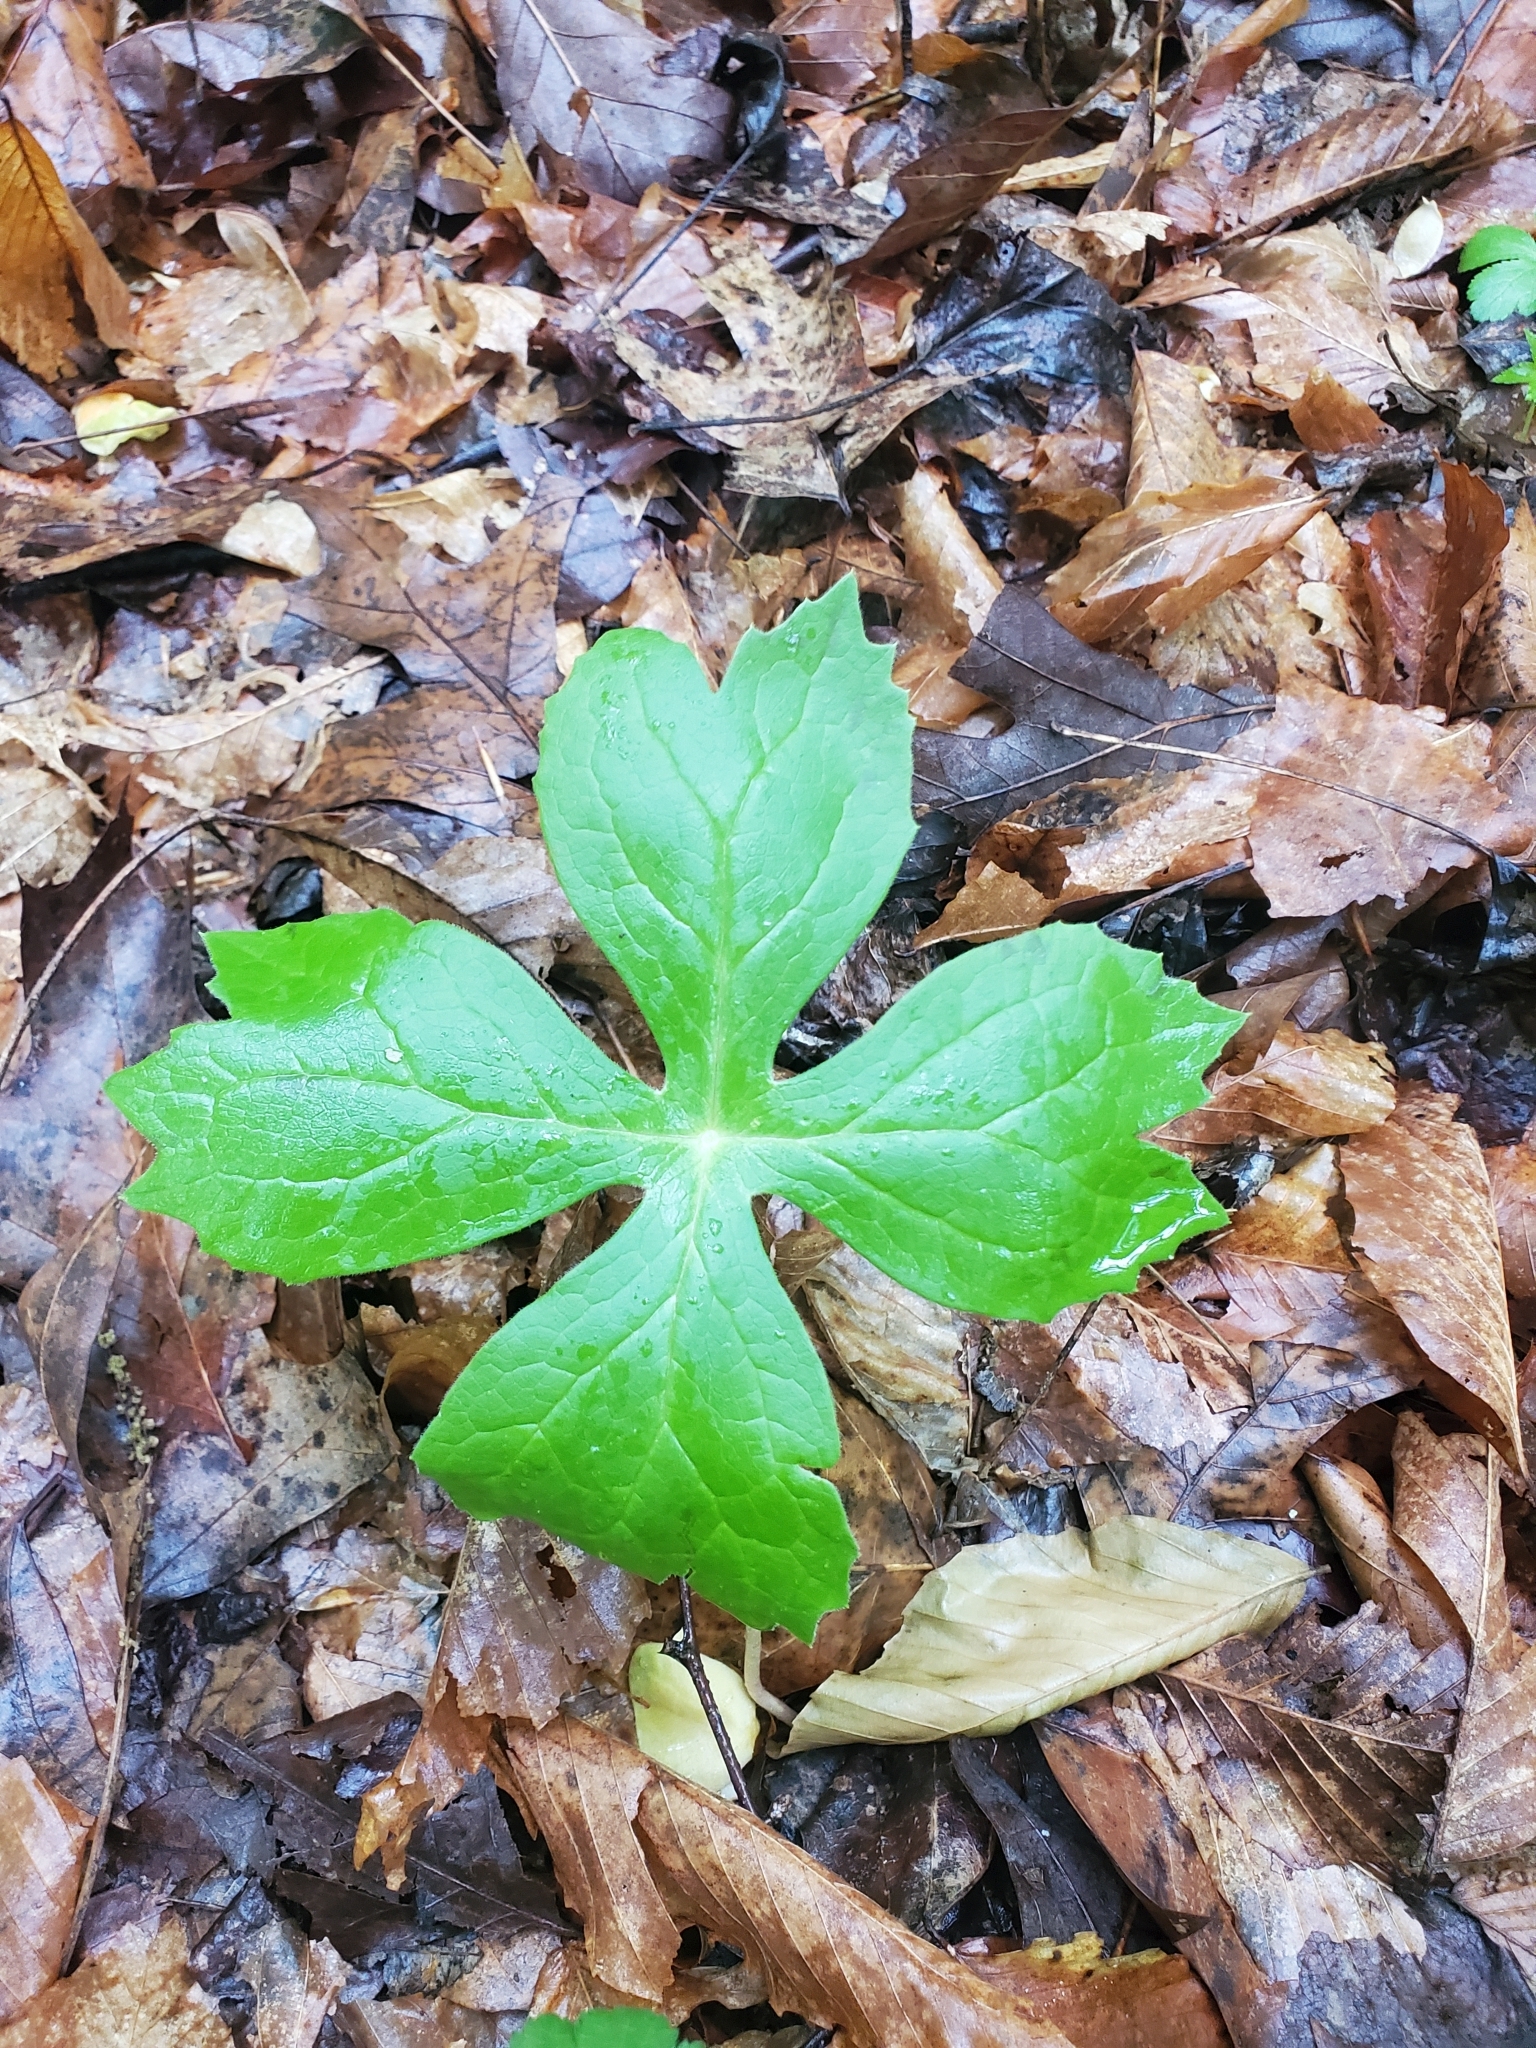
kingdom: Plantae
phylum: Tracheophyta
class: Magnoliopsida
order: Ranunculales
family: Berberidaceae
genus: Podophyllum
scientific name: Podophyllum peltatum
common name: Wild mandrake
